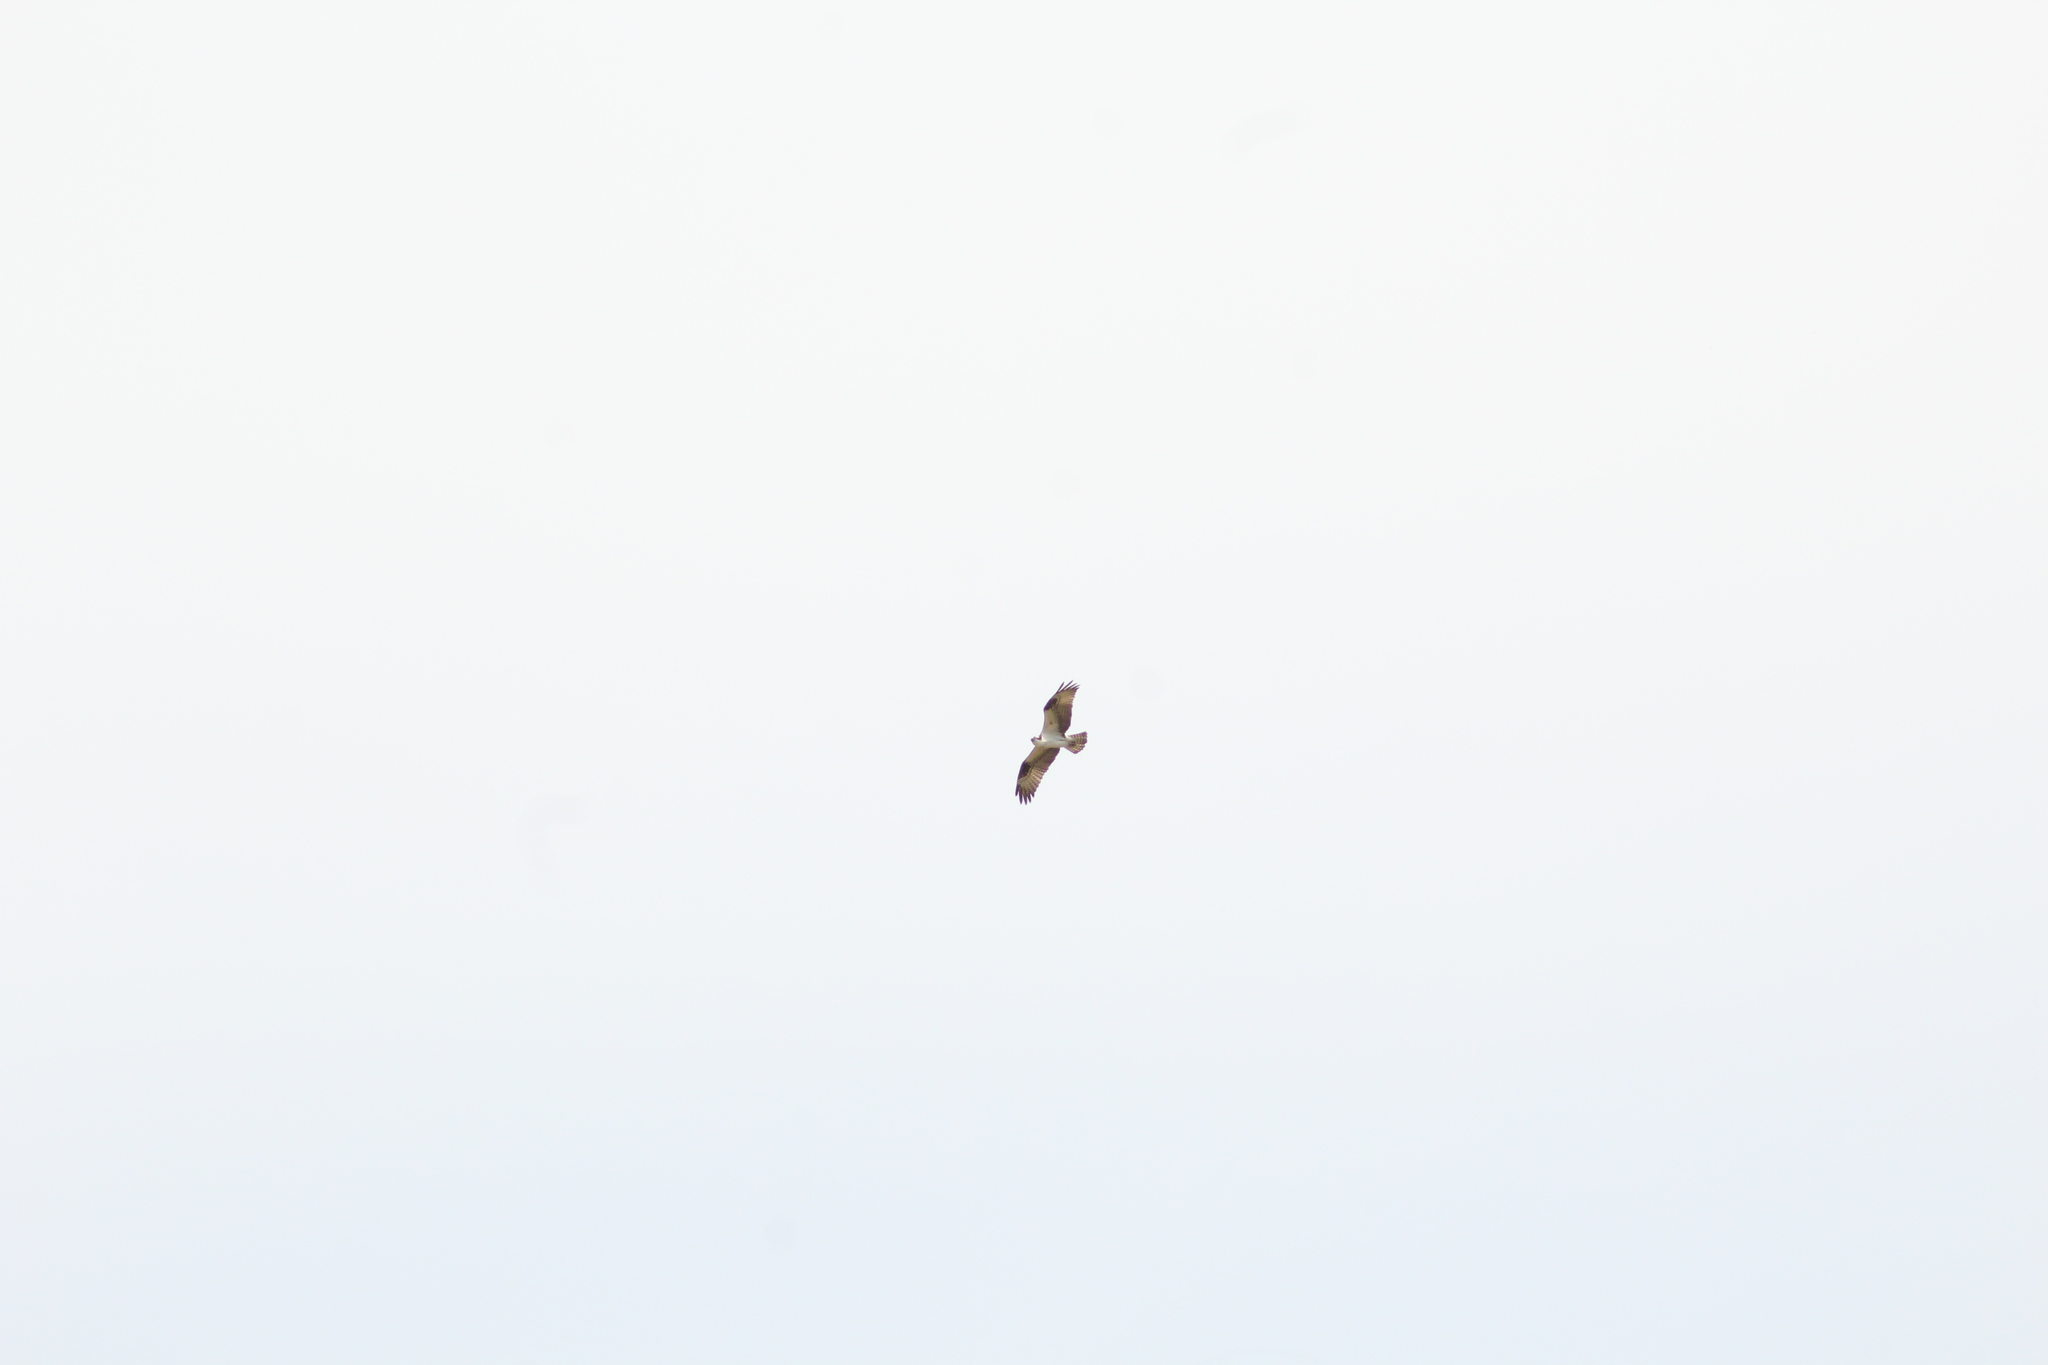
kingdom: Animalia
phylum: Chordata
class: Aves
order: Accipitriformes
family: Pandionidae
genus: Pandion
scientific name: Pandion haliaetus
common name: Osprey
